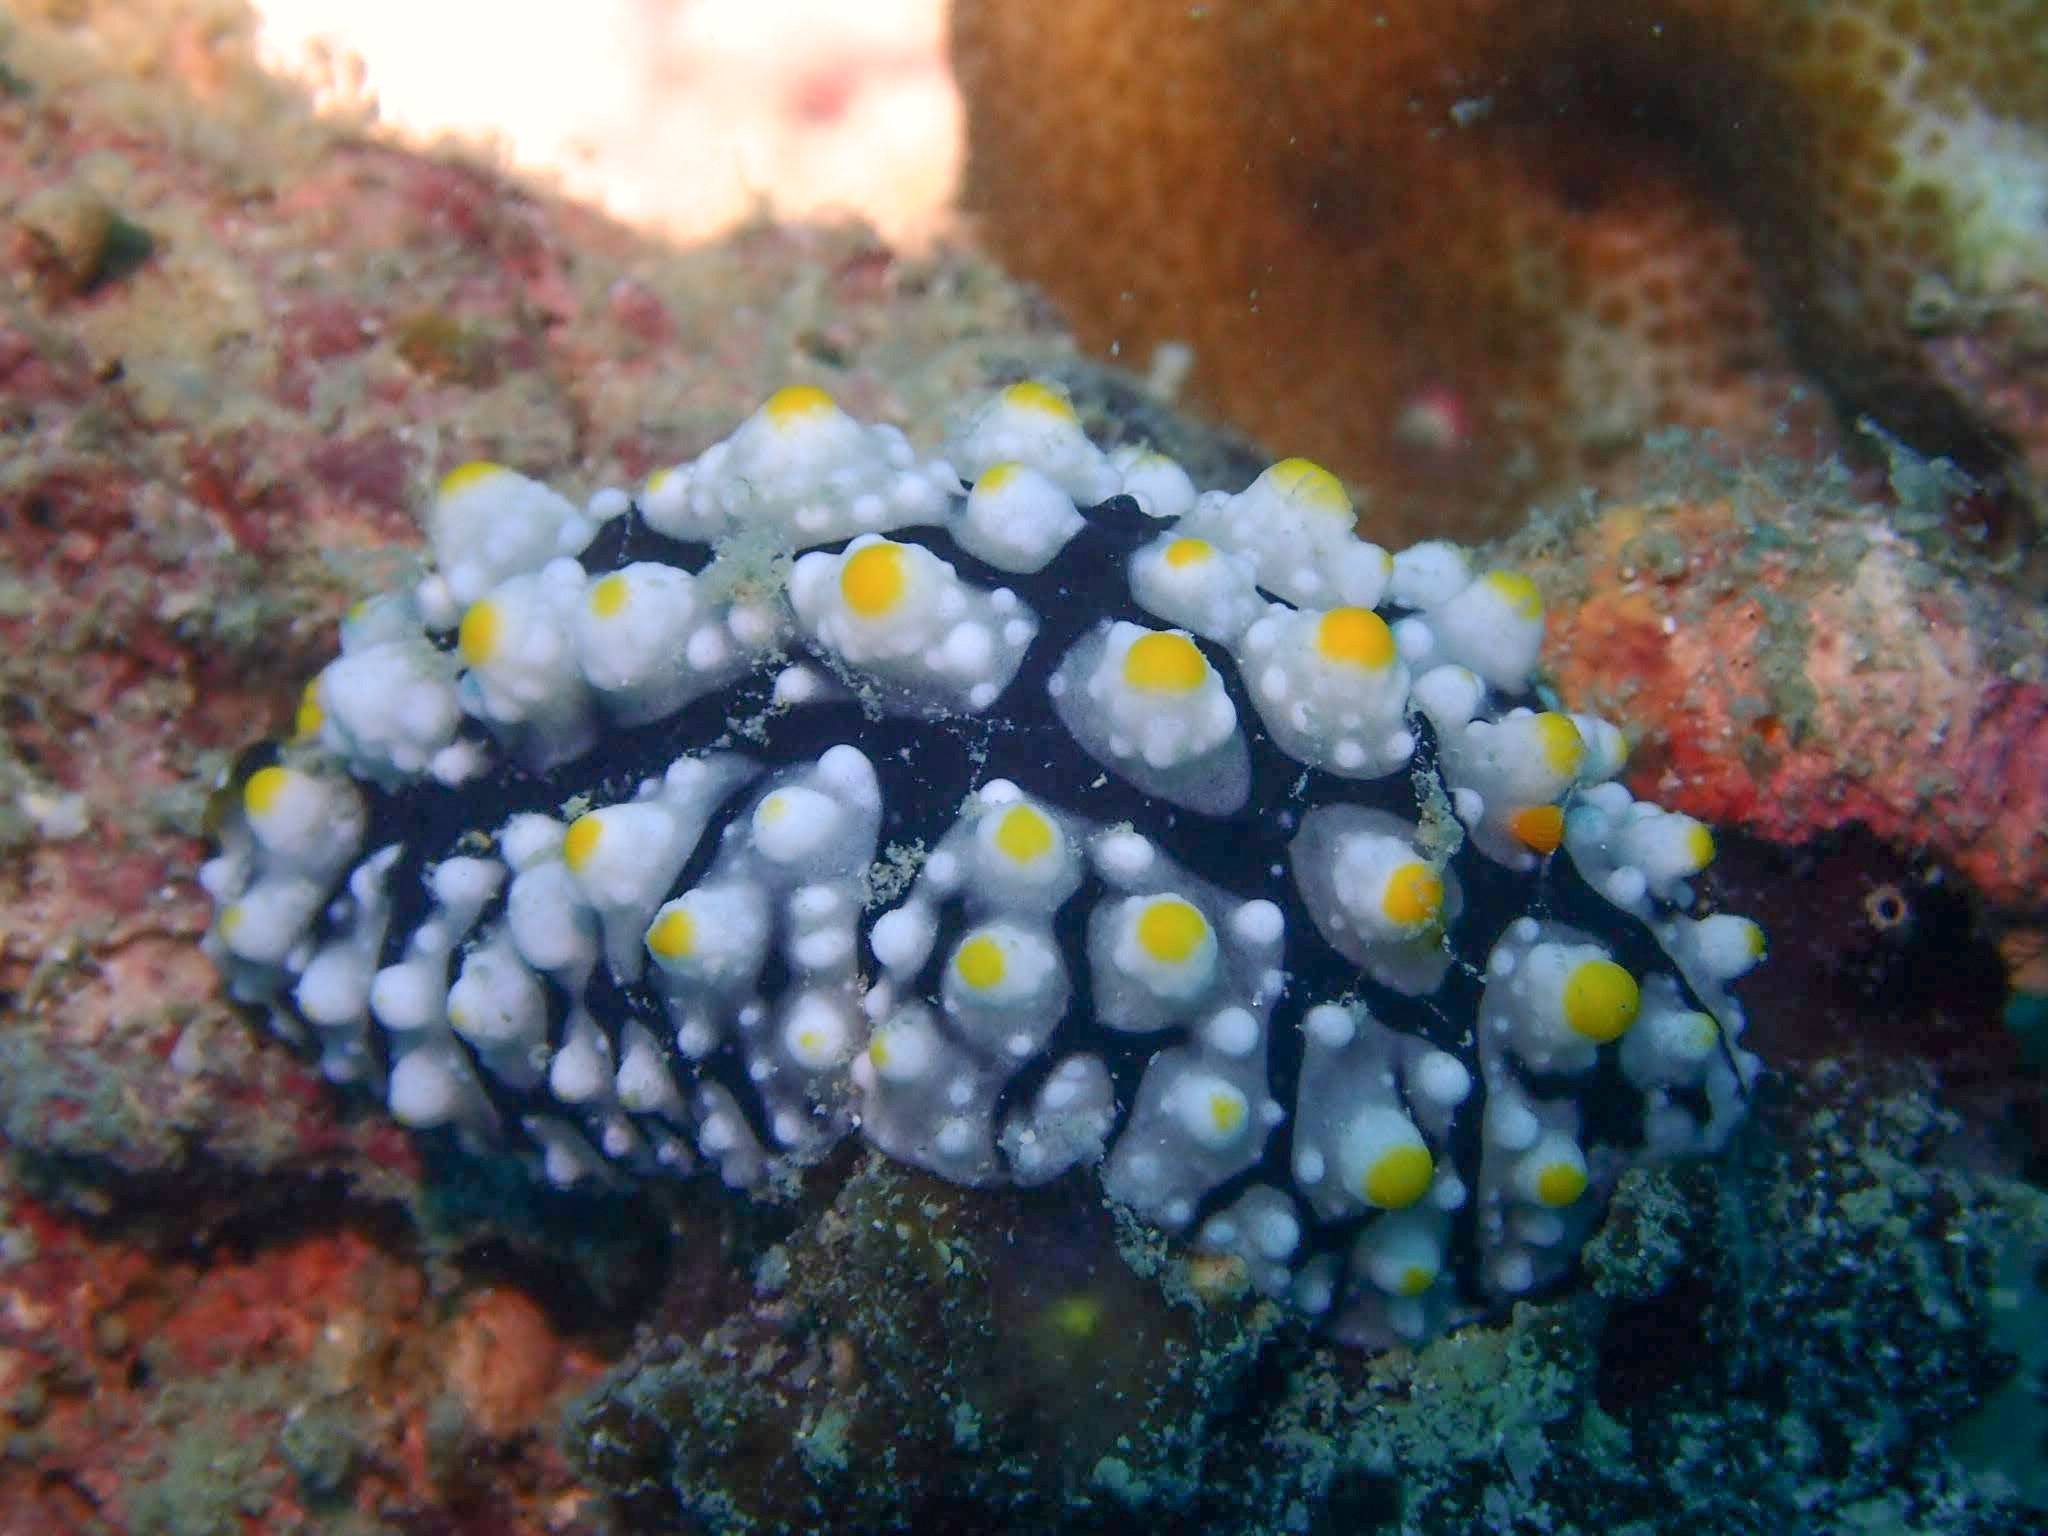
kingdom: Animalia
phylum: Mollusca
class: Gastropoda
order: Nudibranchia
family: Phyllidiidae
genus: Phyllidia
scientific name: Phyllidia elegans
